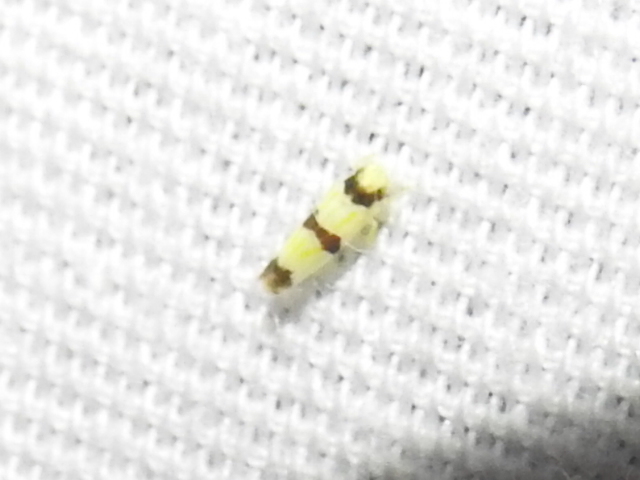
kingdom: Animalia
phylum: Arthropoda
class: Insecta
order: Hemiptera
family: Cicadellidae
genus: Erythroneura
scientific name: Erythroneura calycula
